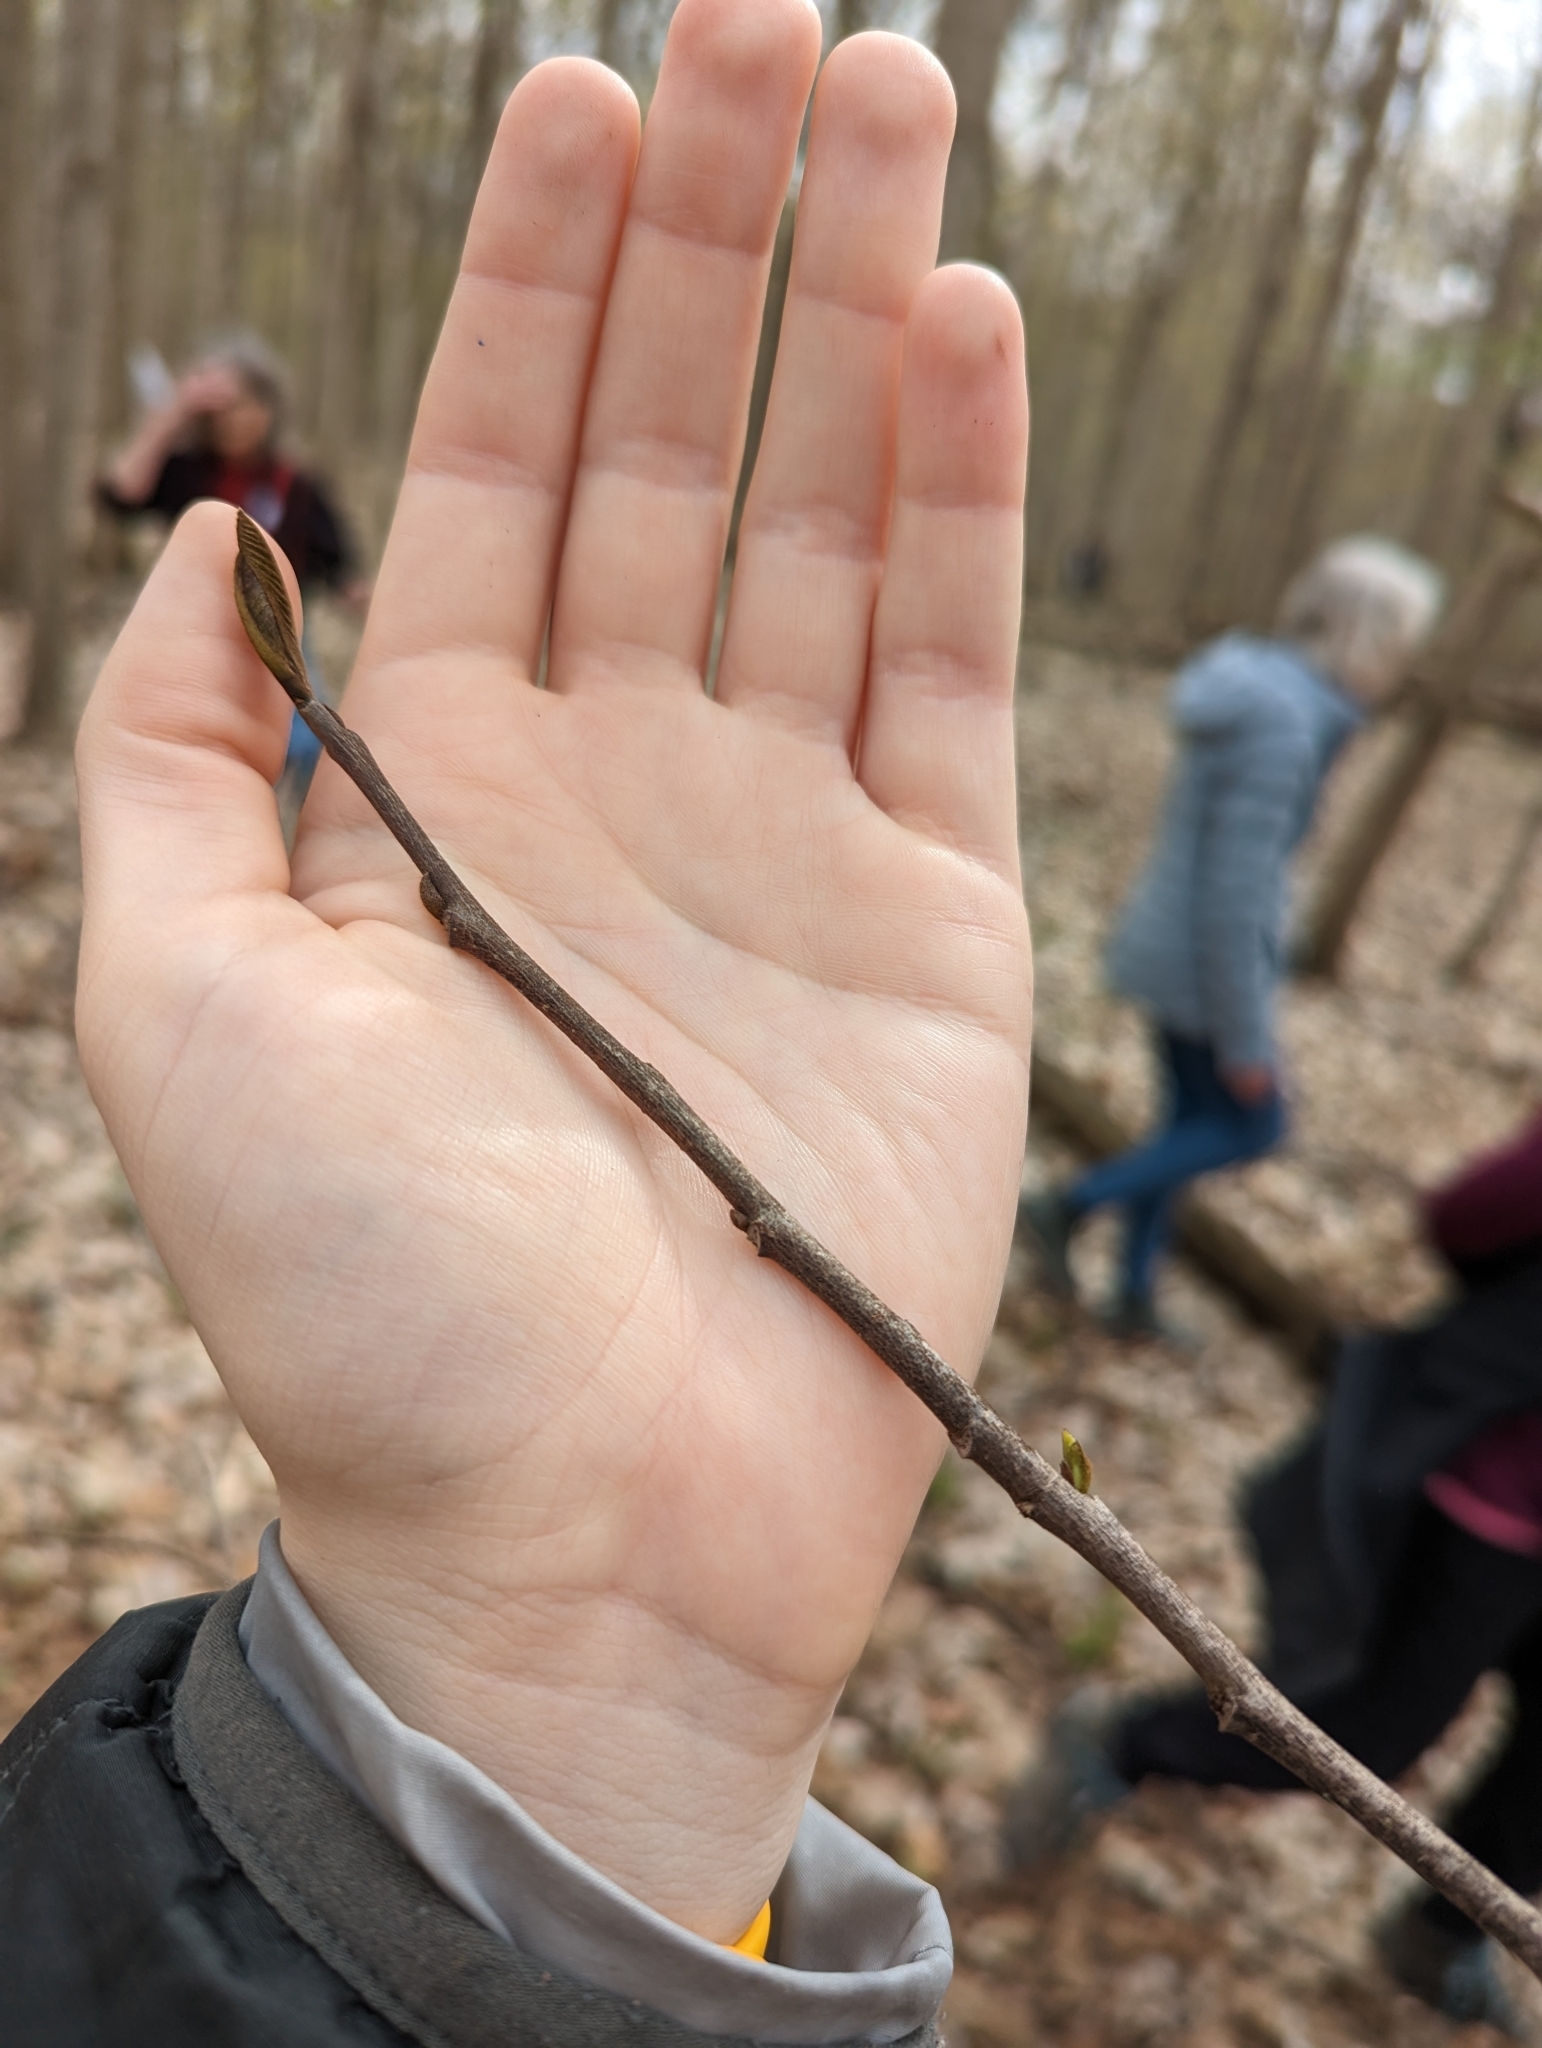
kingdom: Plantae
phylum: Tracheophyta
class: Magnoliopsida
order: Magnoliales
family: Annonaceae
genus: Asimina
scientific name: Asimina triloba
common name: Dog-banana
